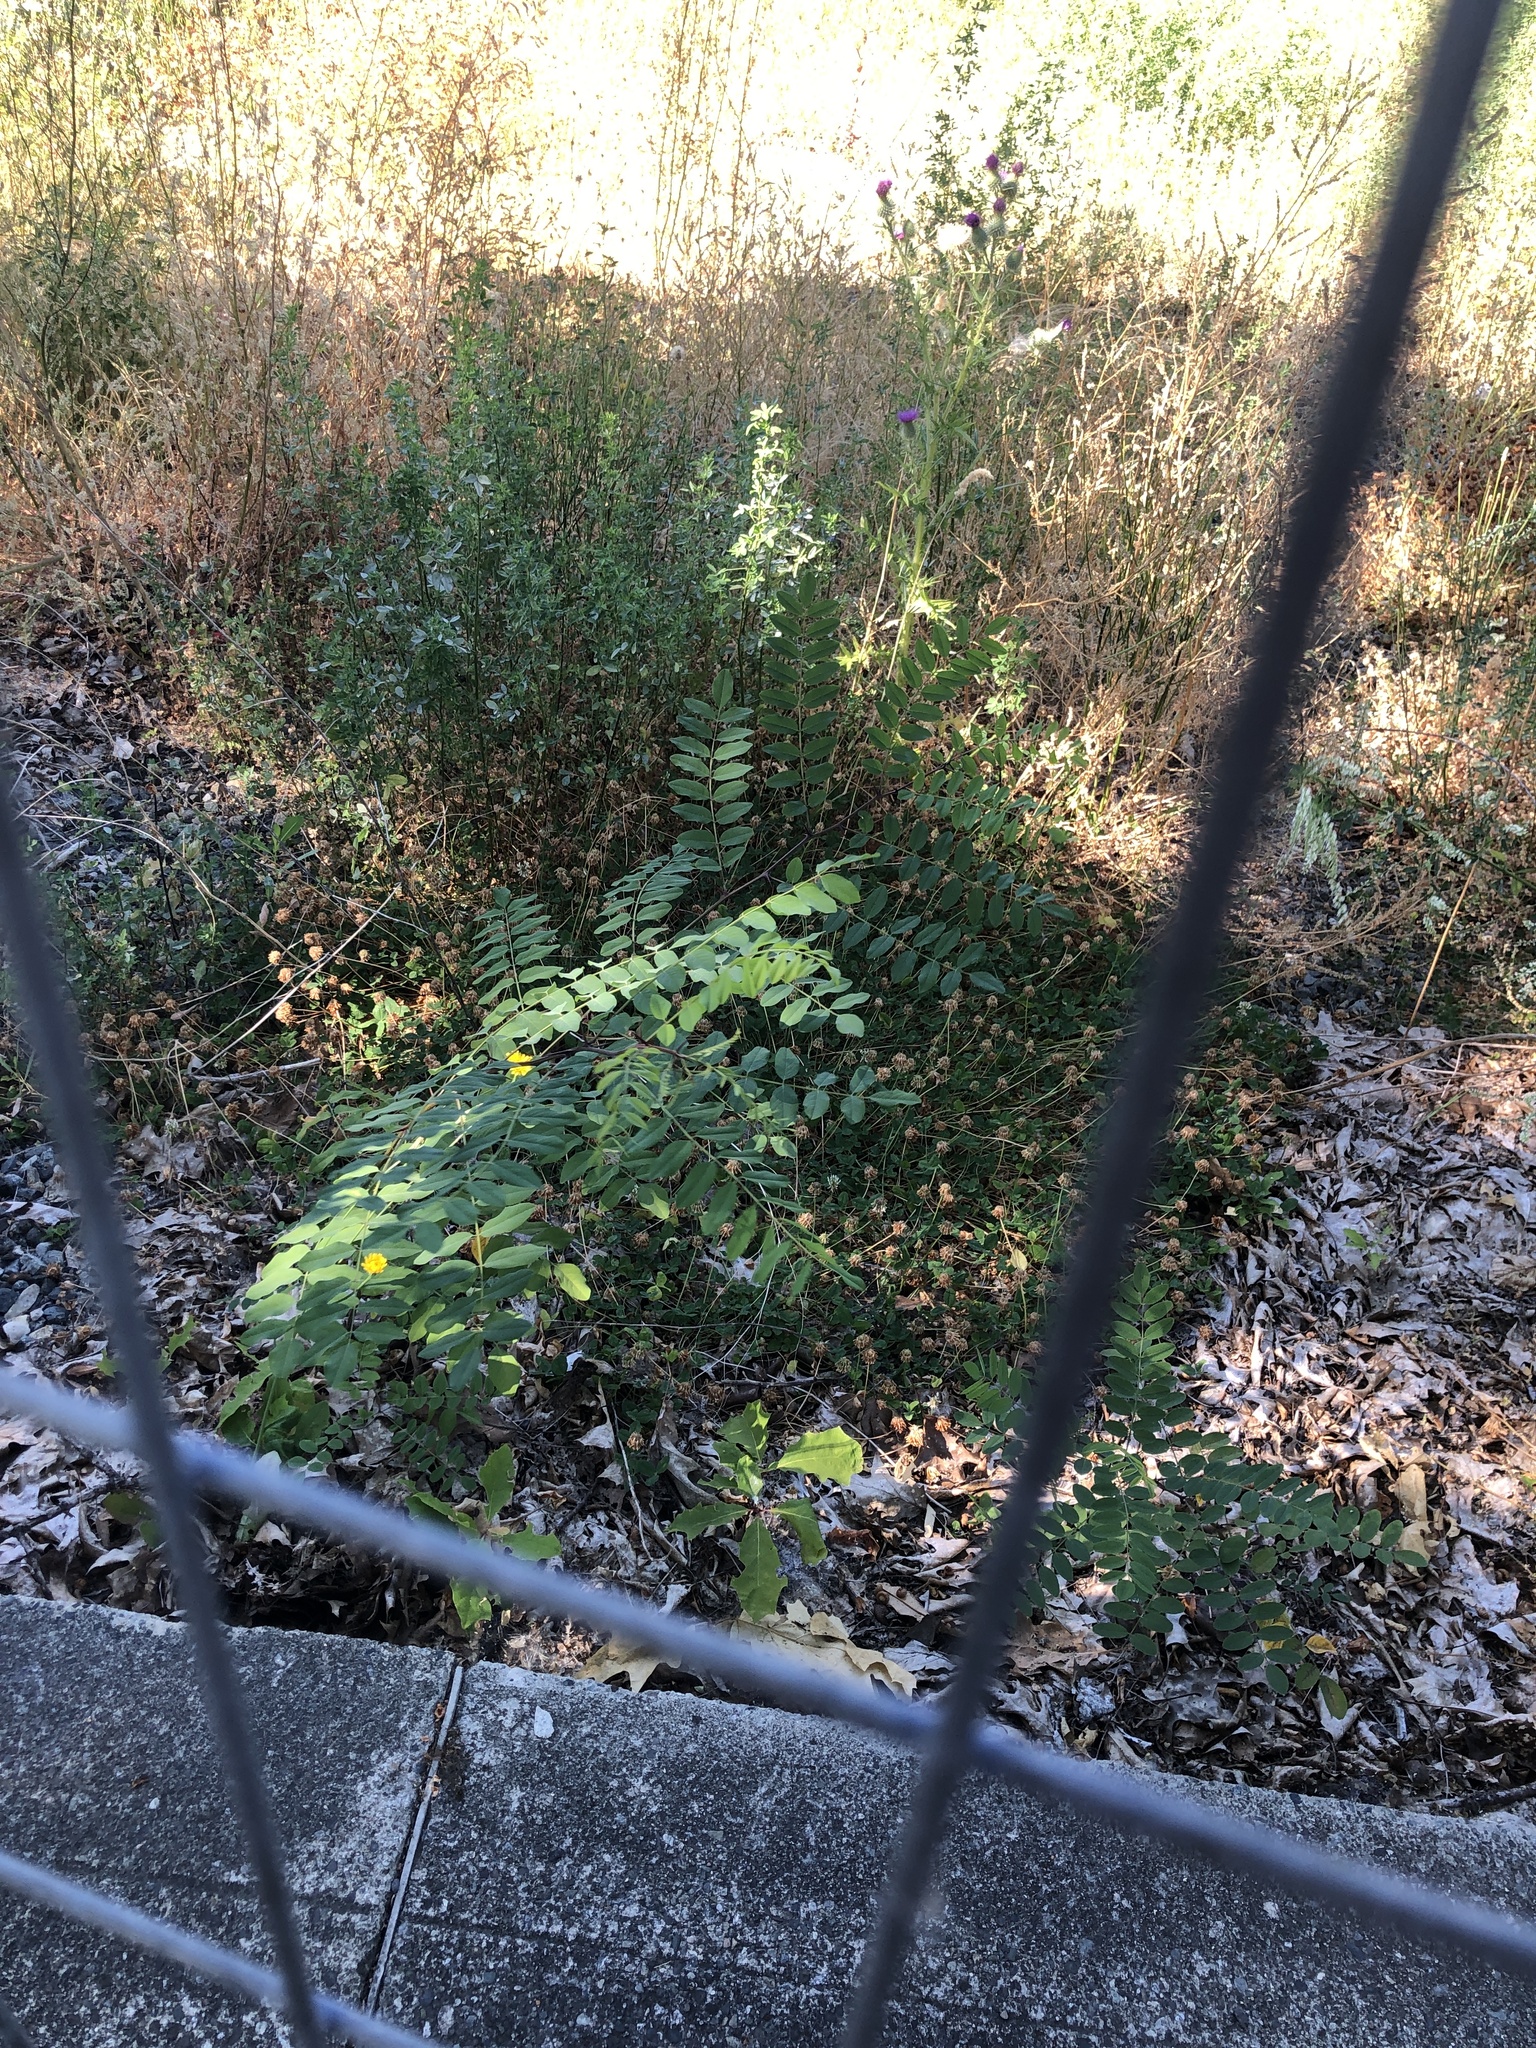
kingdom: Plantae
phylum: Tracheophyta
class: Magnoliopsida
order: Fabales
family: Fabaceae
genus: Robinia
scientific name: Robinia pseudoacacia
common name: Black locust
